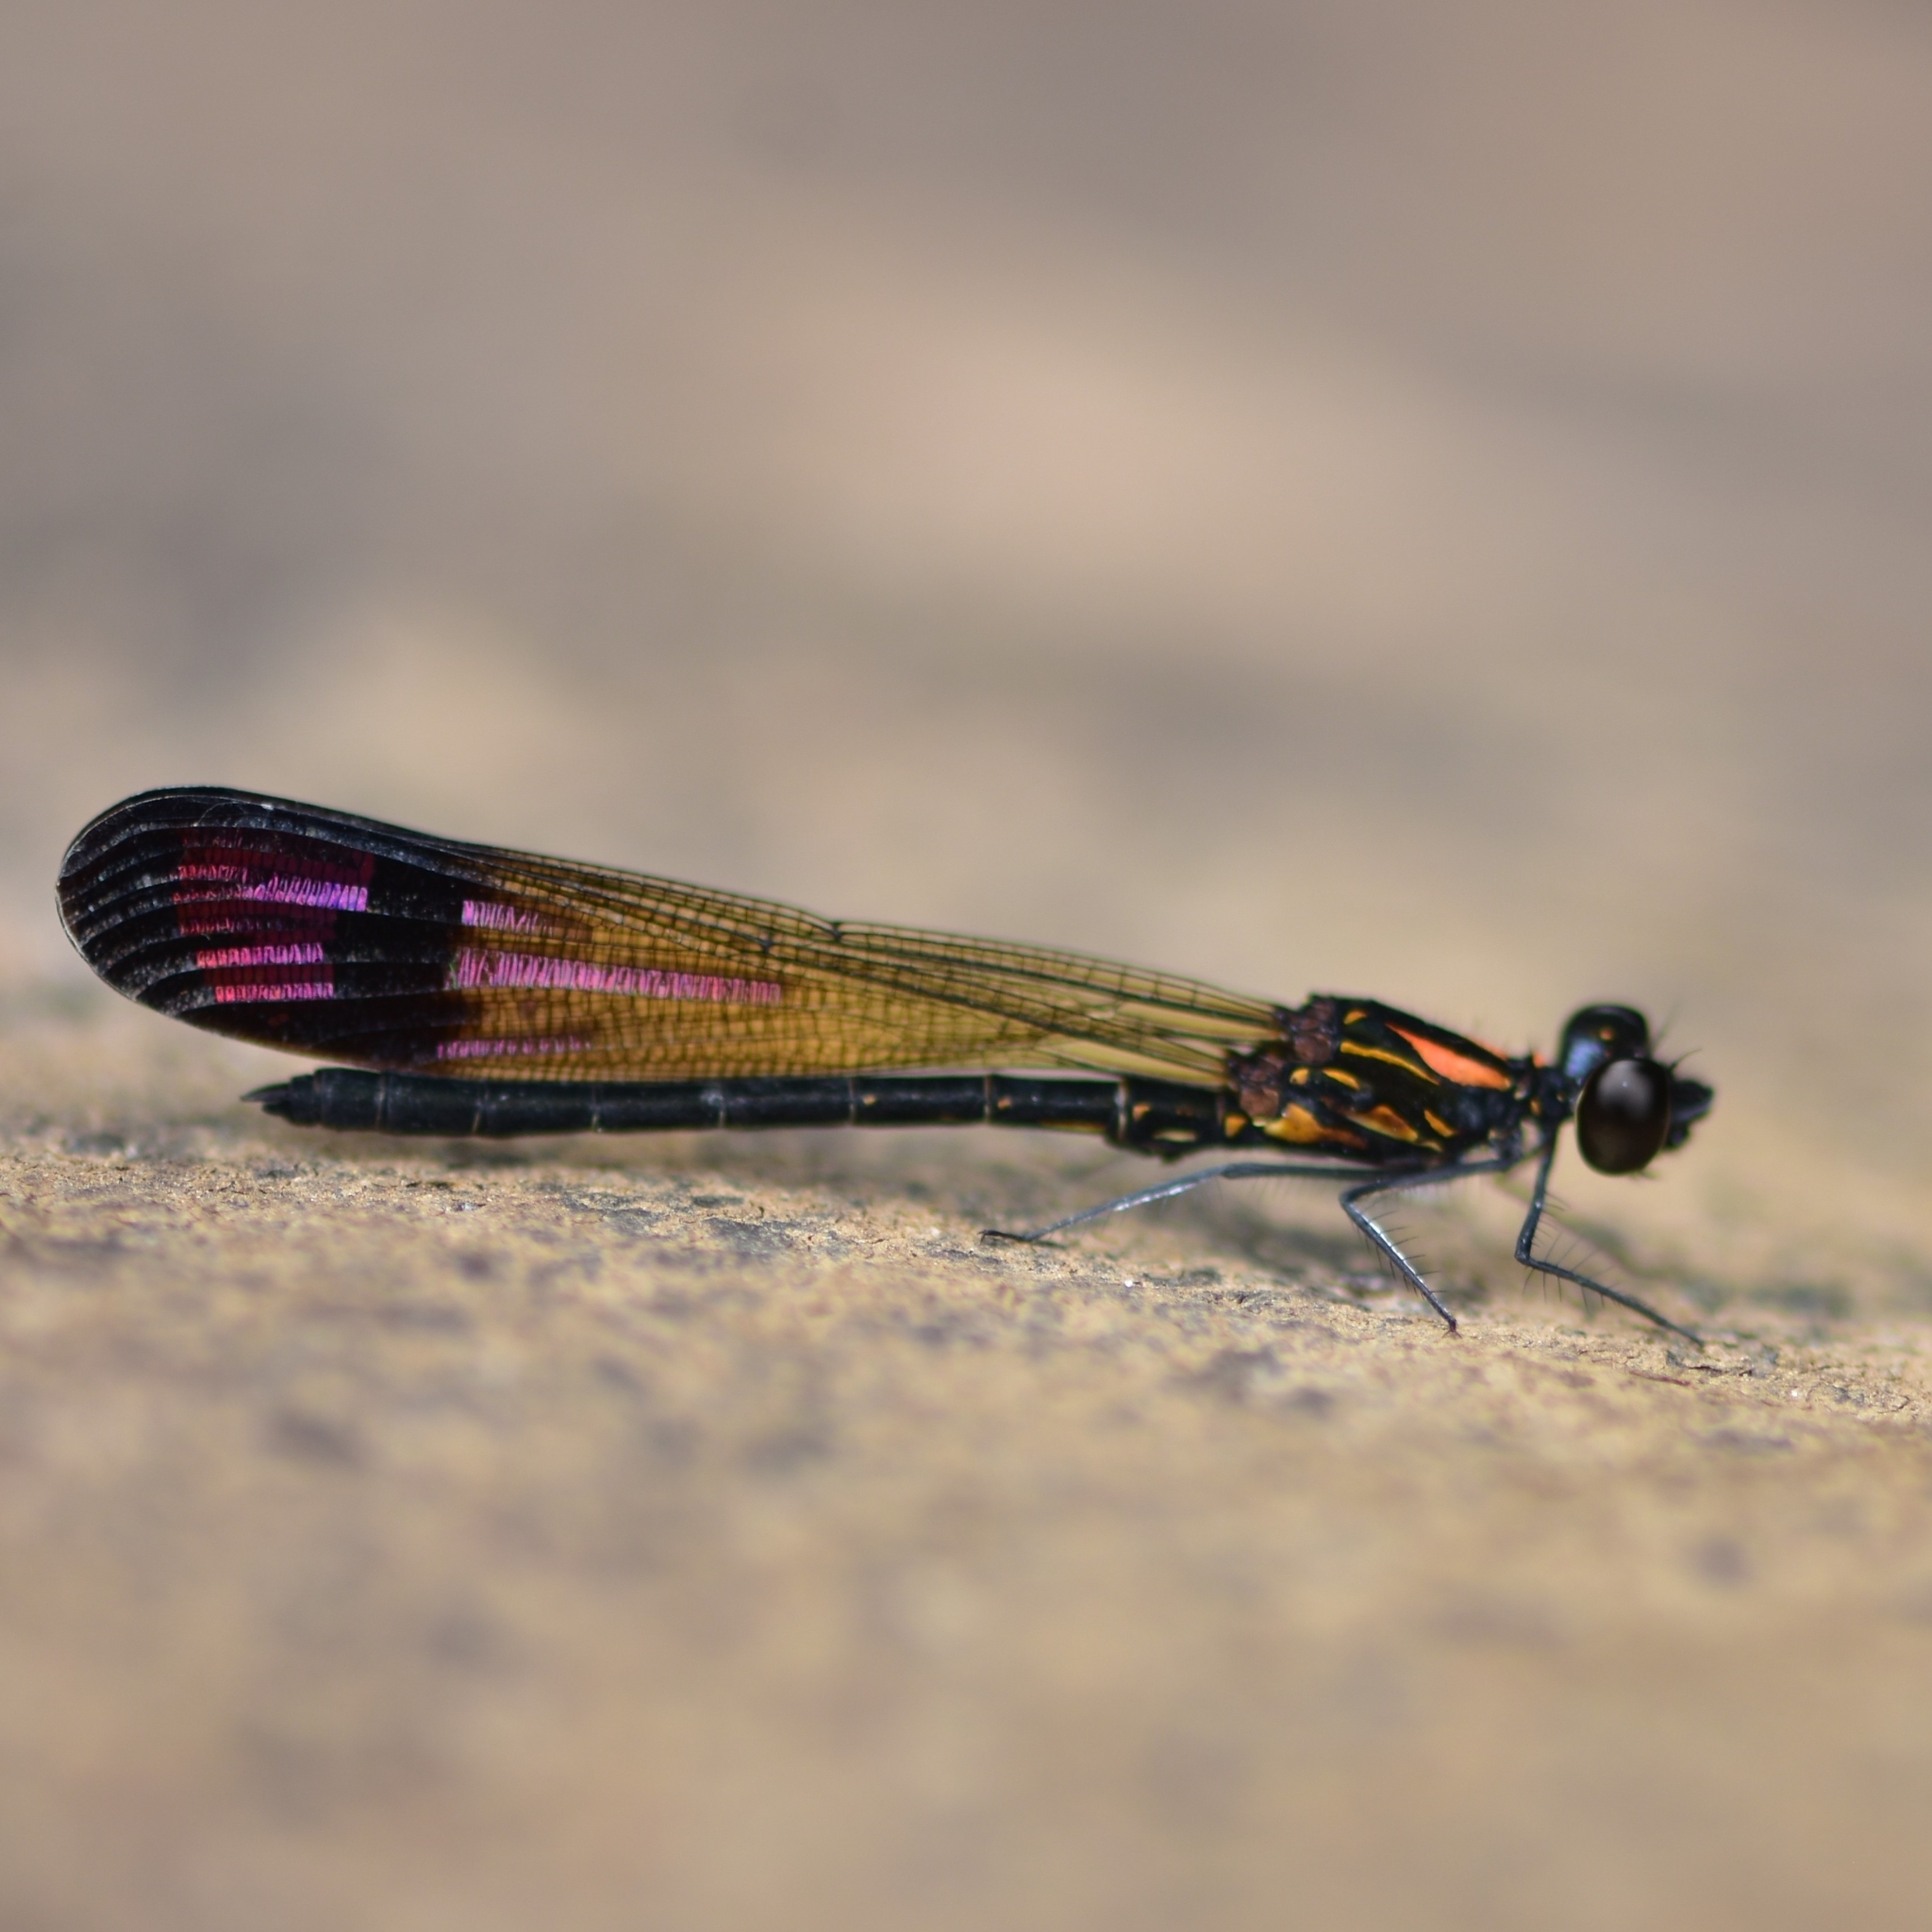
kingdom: Animalia
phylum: Arthropoda
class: Insecta
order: Odonata
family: Chlorocyphidae
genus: Heliocypha
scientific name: Heliocypha bisignata
